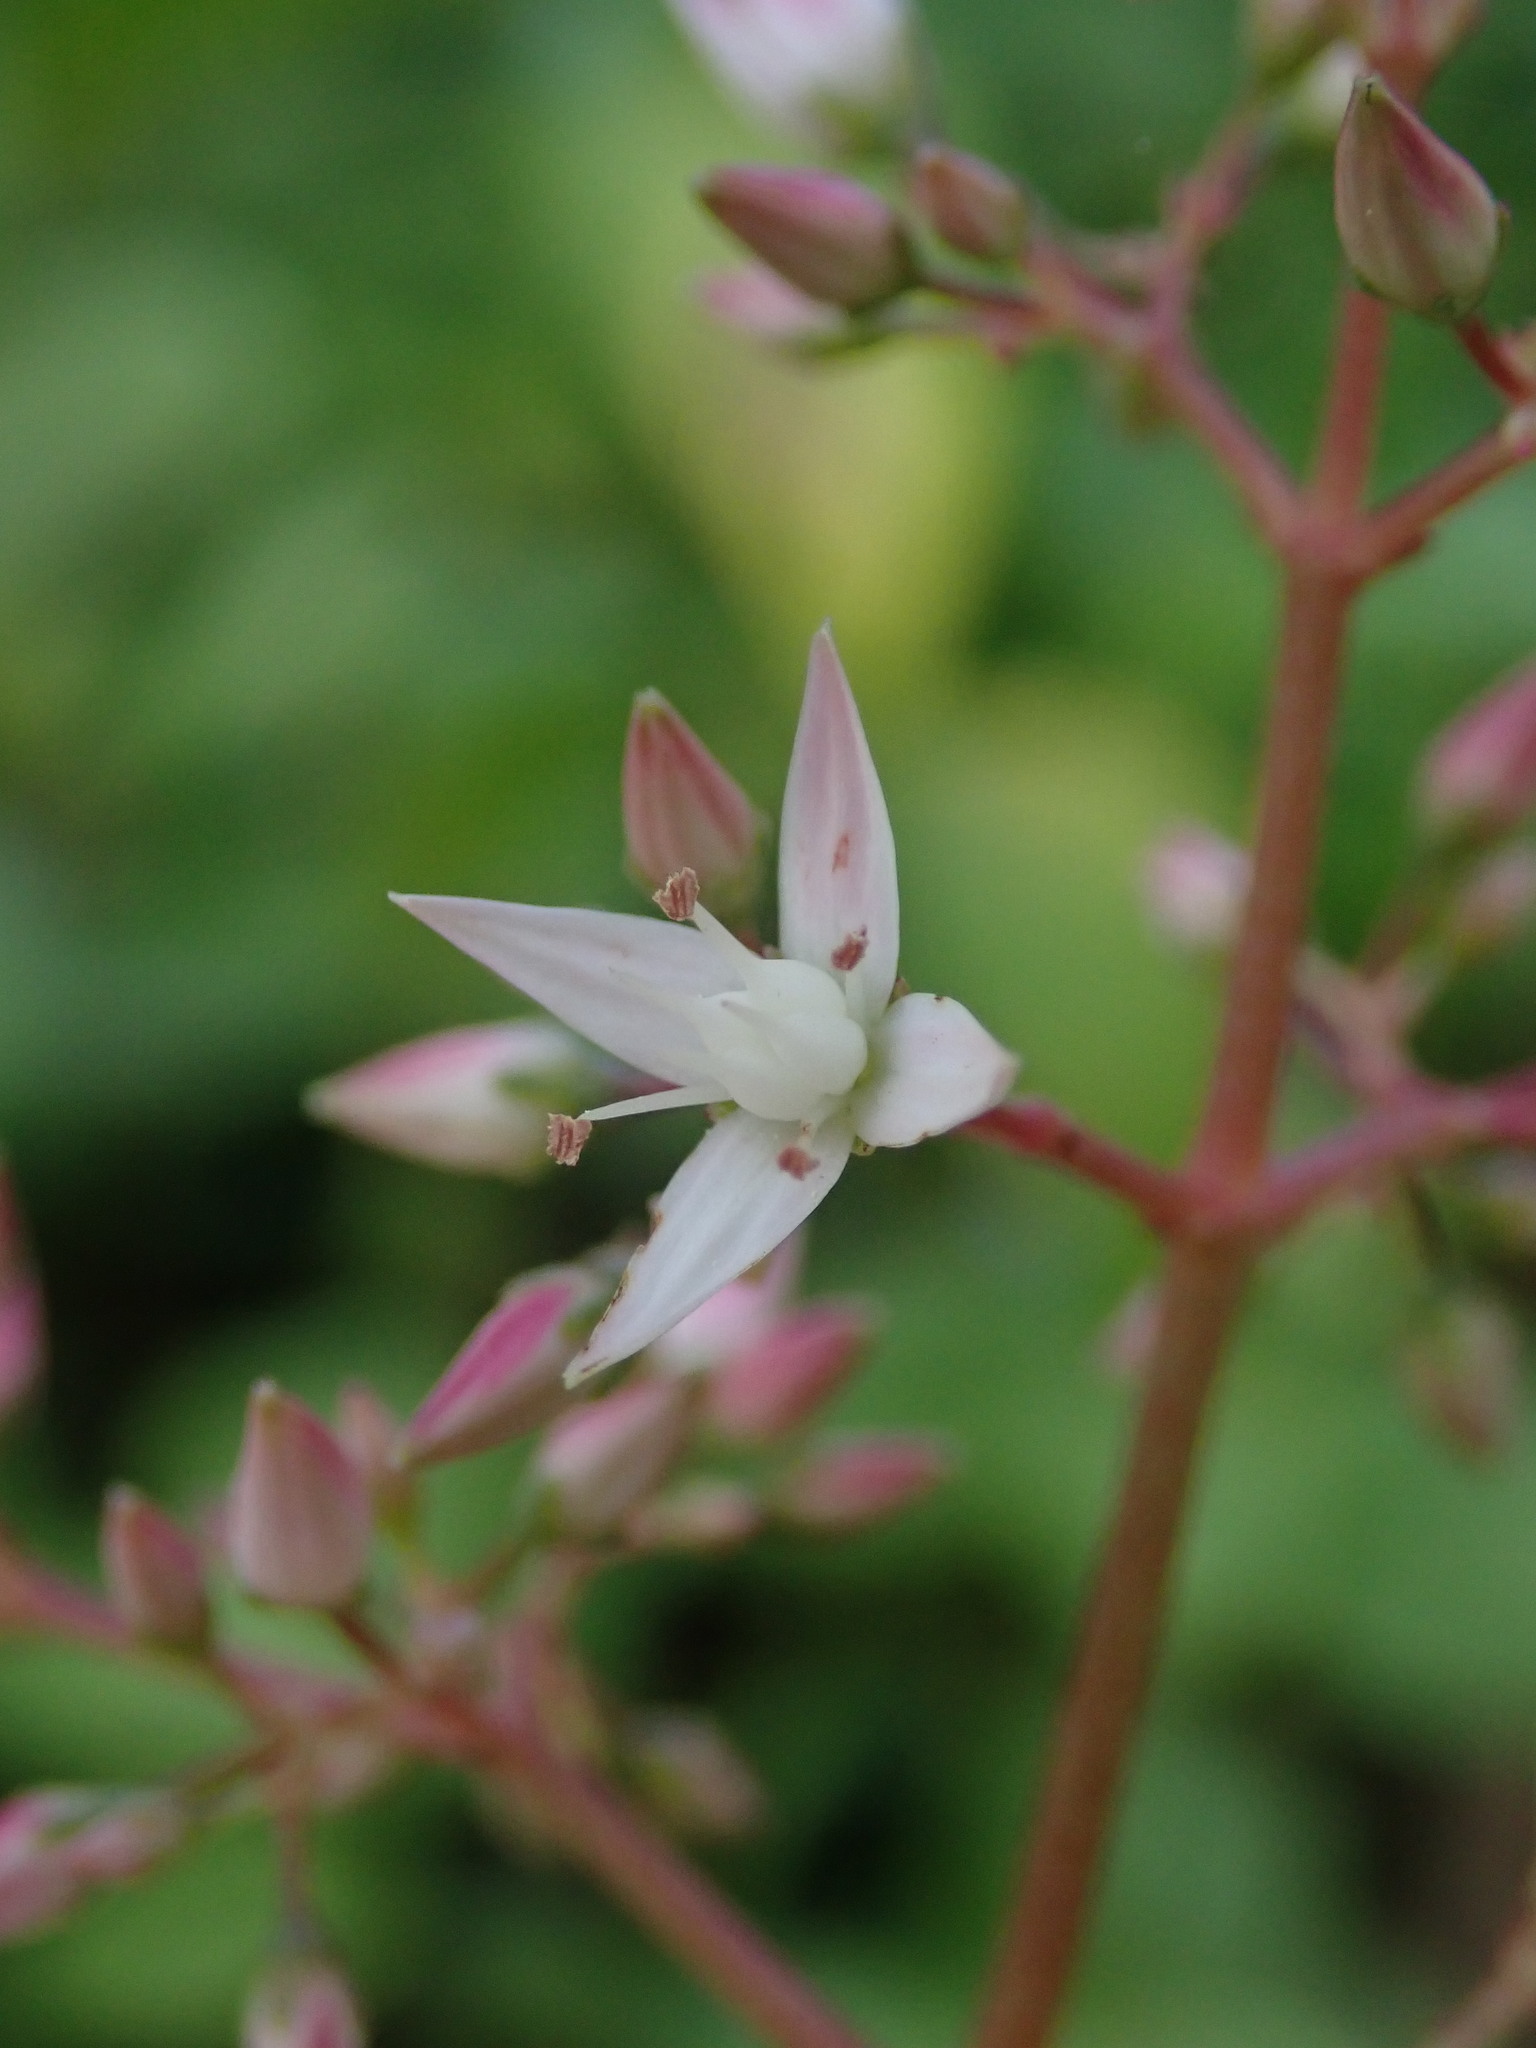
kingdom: Plantae
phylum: Tracheophyta
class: Magnoliopsida
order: Saxifragales
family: Crassulaceae
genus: Crassula
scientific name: Crassula multicava
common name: Cape province pygmyweed
